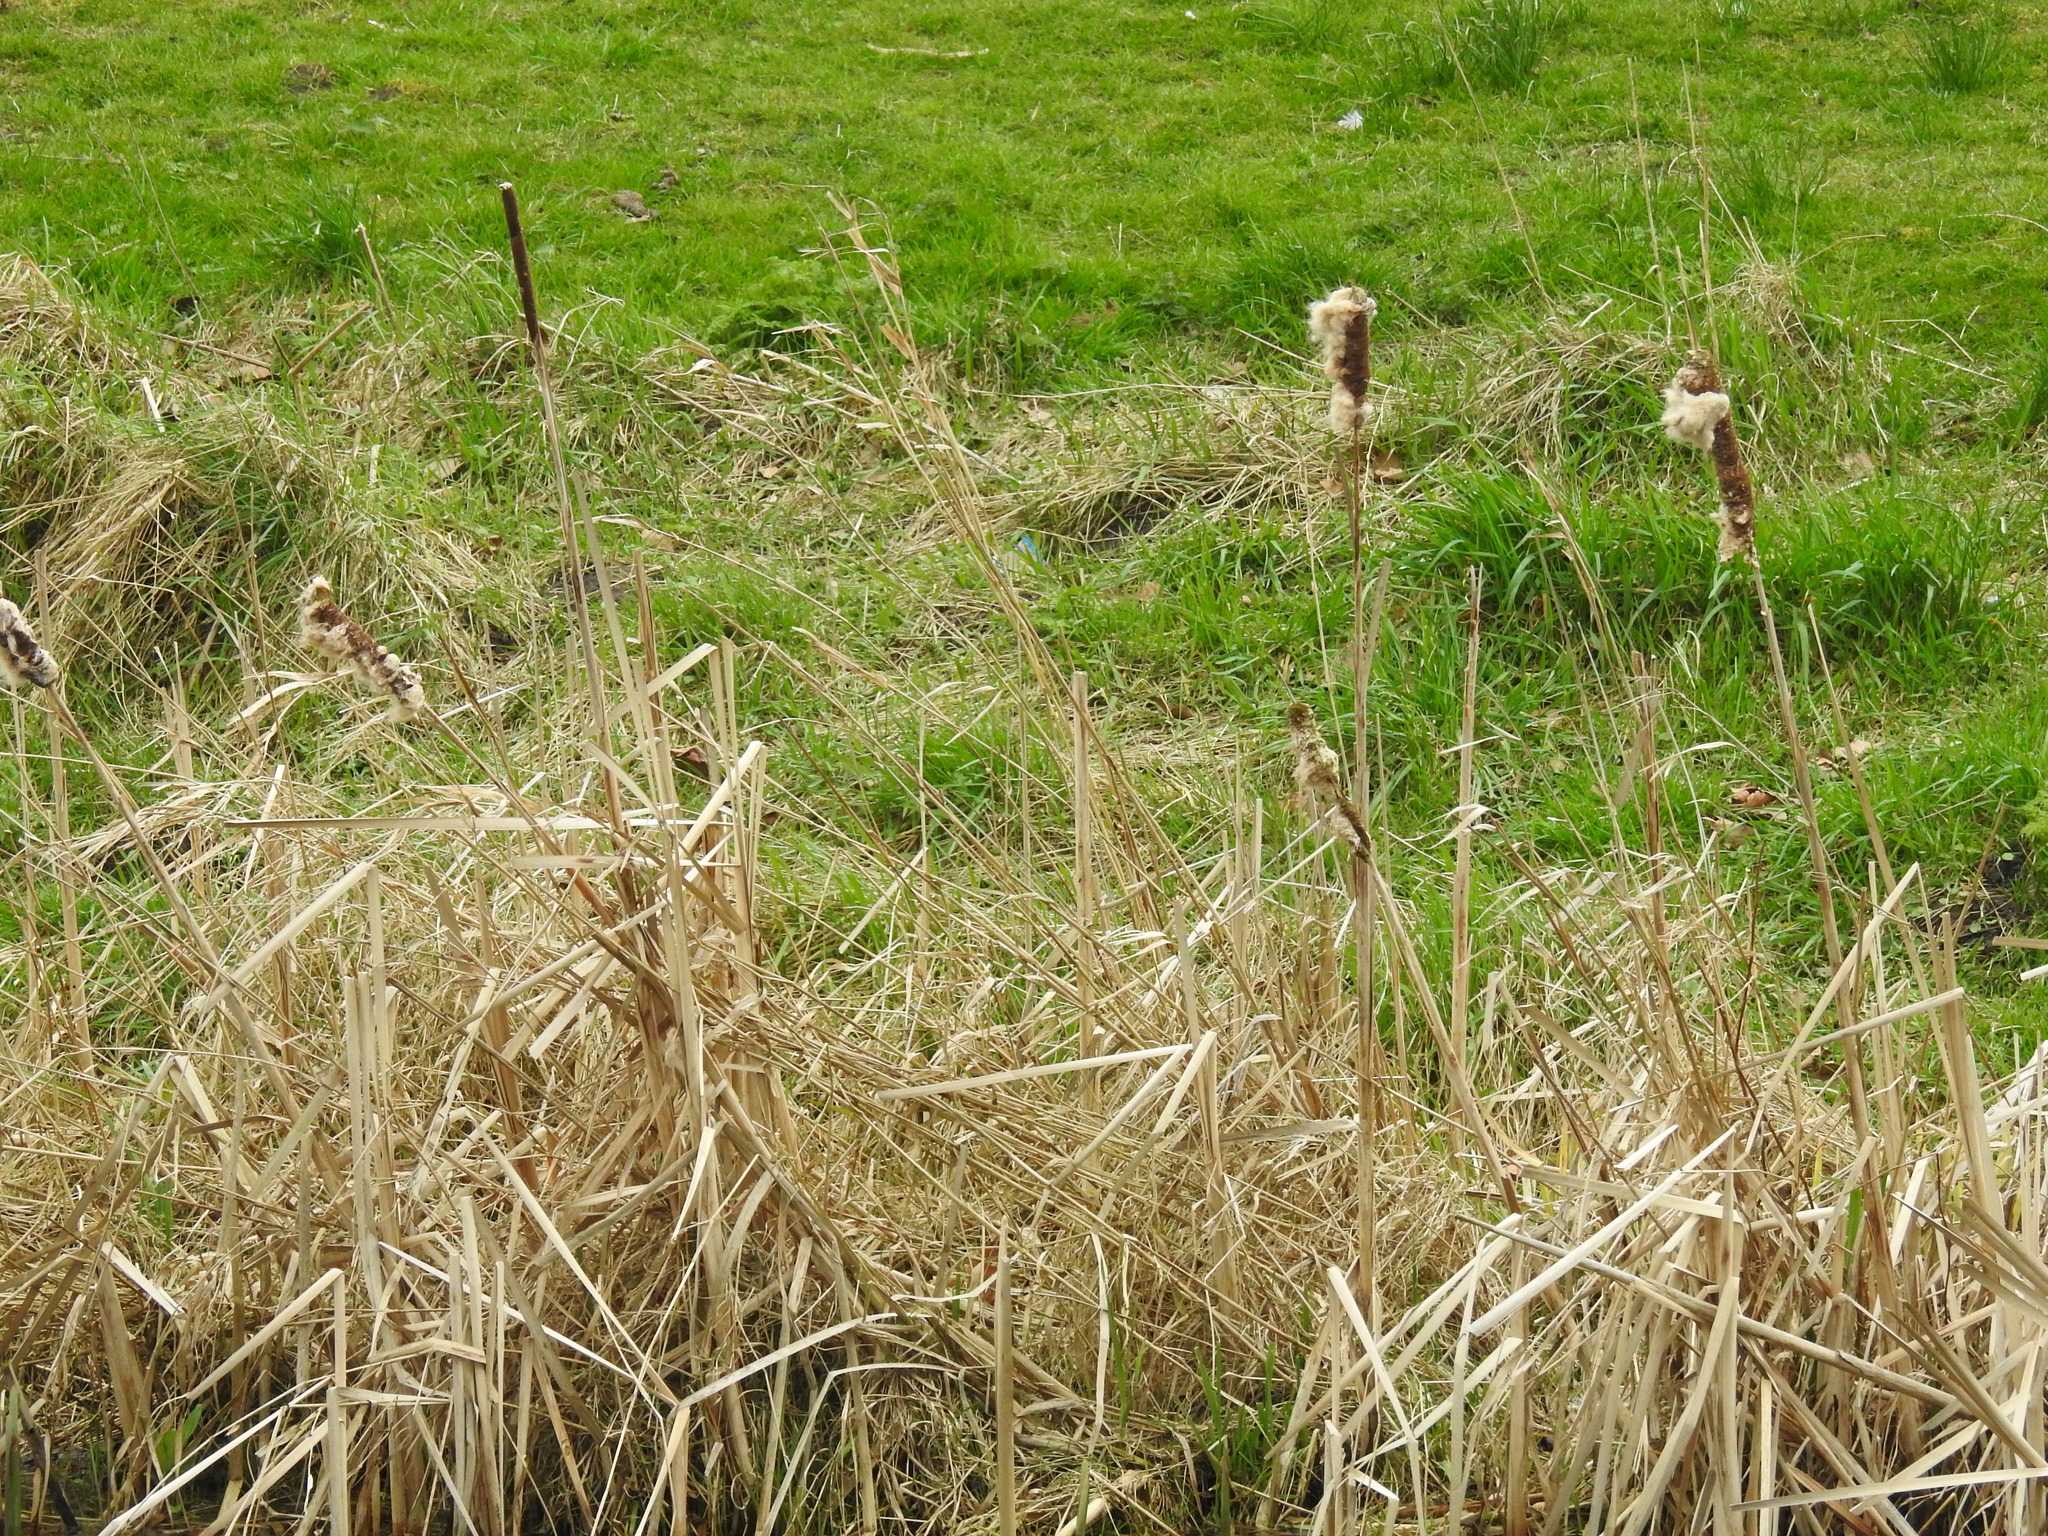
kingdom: Plantae
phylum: Tracheophyta
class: Liliopsida
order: Poales
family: Typhaceae
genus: Typha
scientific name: Typha latifolia
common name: Broadleaf cattail
